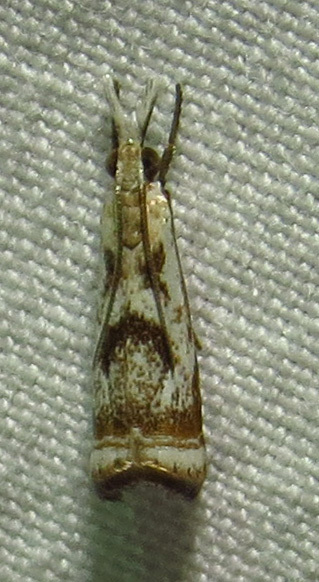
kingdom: Animalia
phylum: Arthropoda
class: Insecta
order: Lepidoptera
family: Crambidae
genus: Microcrambus
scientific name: Microcrambus elegans
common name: Elegant grass-veneer
